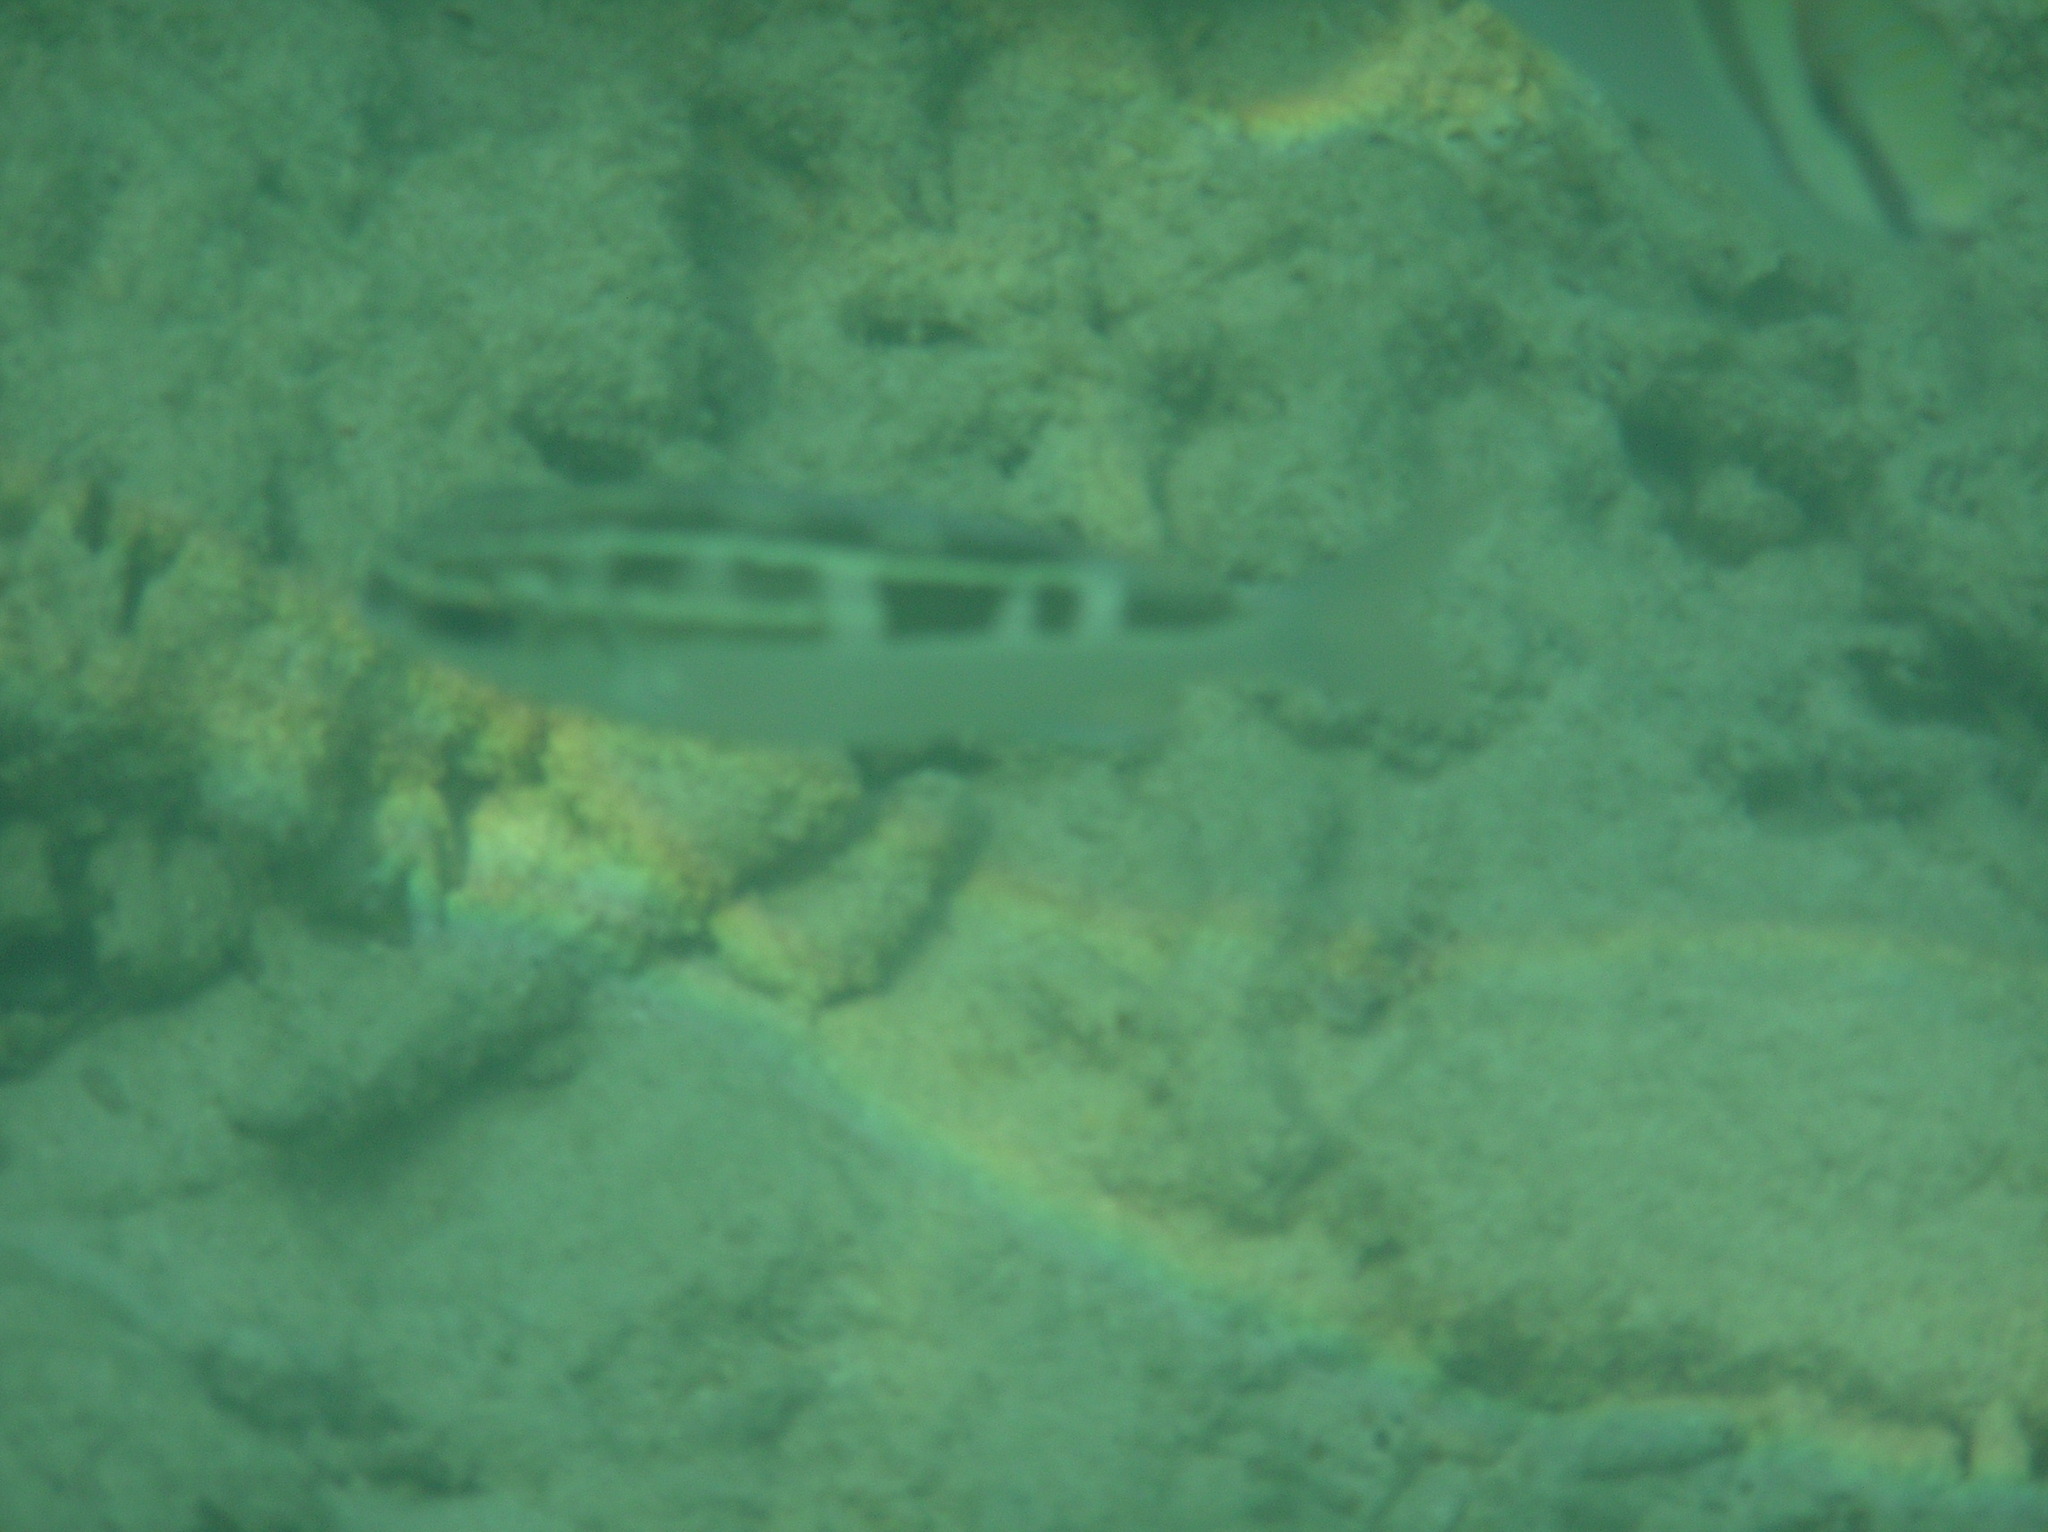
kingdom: Animalia
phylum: Chordata
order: Perciformes
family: Nemipteridae
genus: Scolopsis
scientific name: Scolopsis lineata
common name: Striped monocle bream
